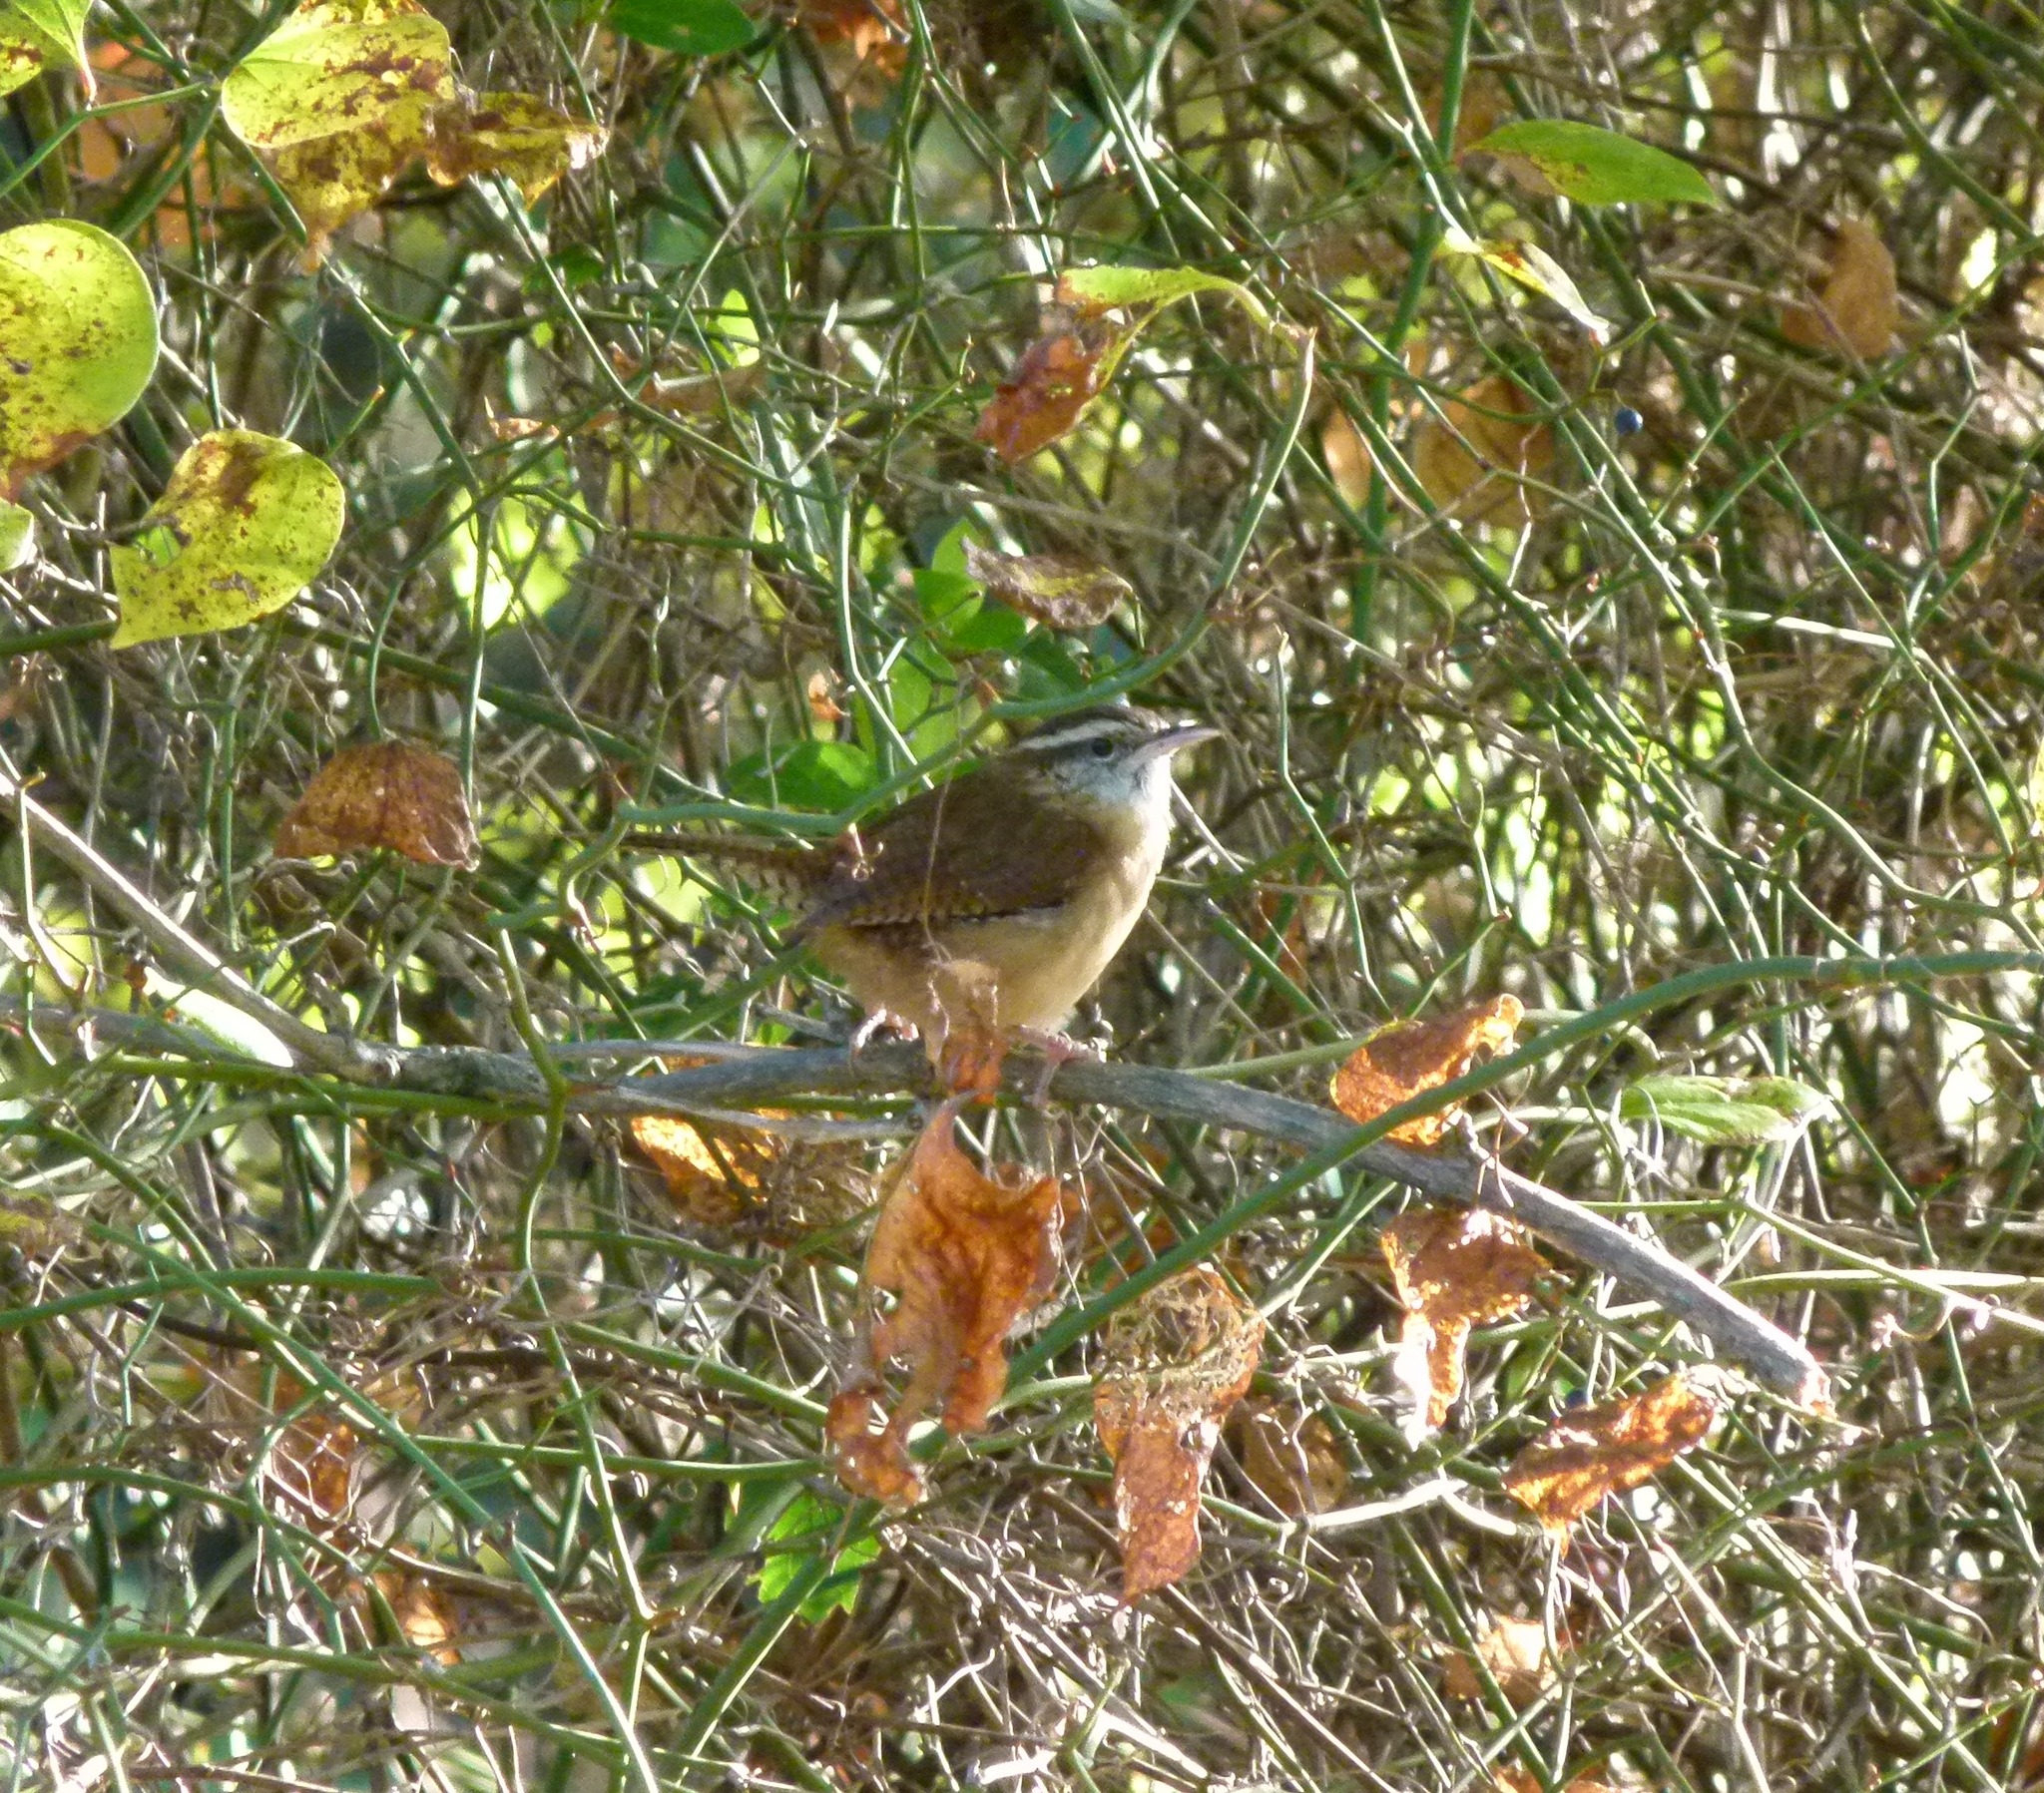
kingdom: Animalia
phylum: Chordata
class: Aves
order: Passeriformes
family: Troglodytidae
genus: Thryothorus
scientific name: Thryothorus ludovicianus
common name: Carolina wren
